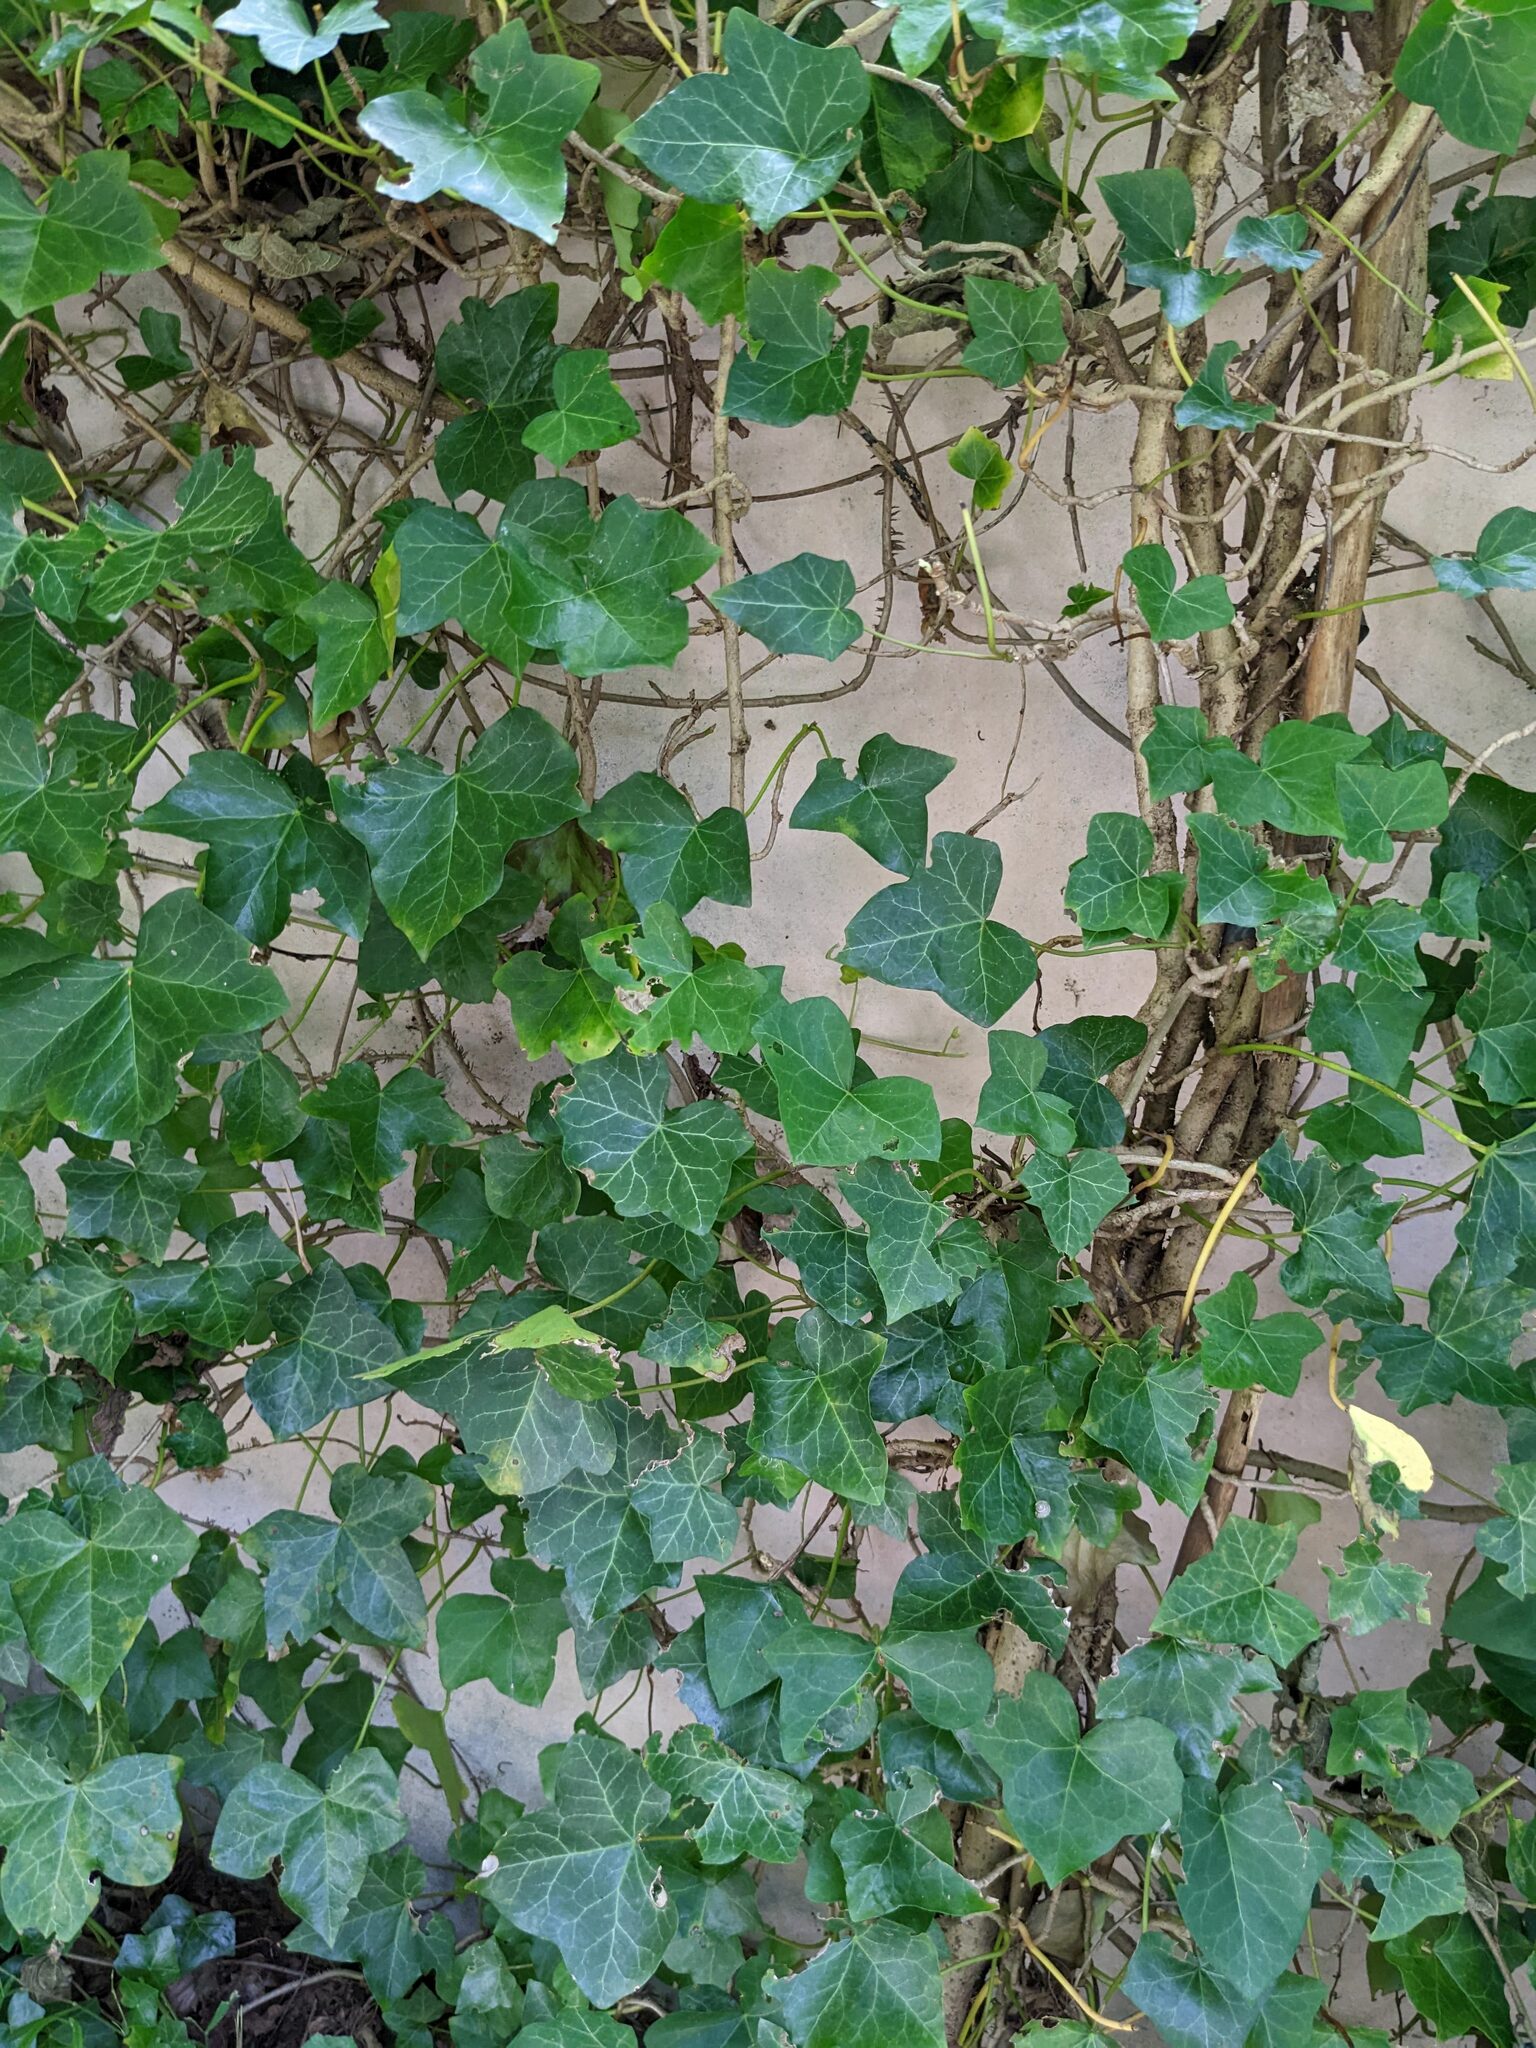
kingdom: Plantae
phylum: Tracheophyta
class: Magnoliopsida
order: Apiales
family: Araliaceae
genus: Hedera
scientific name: Hedera helix
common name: Ivy
